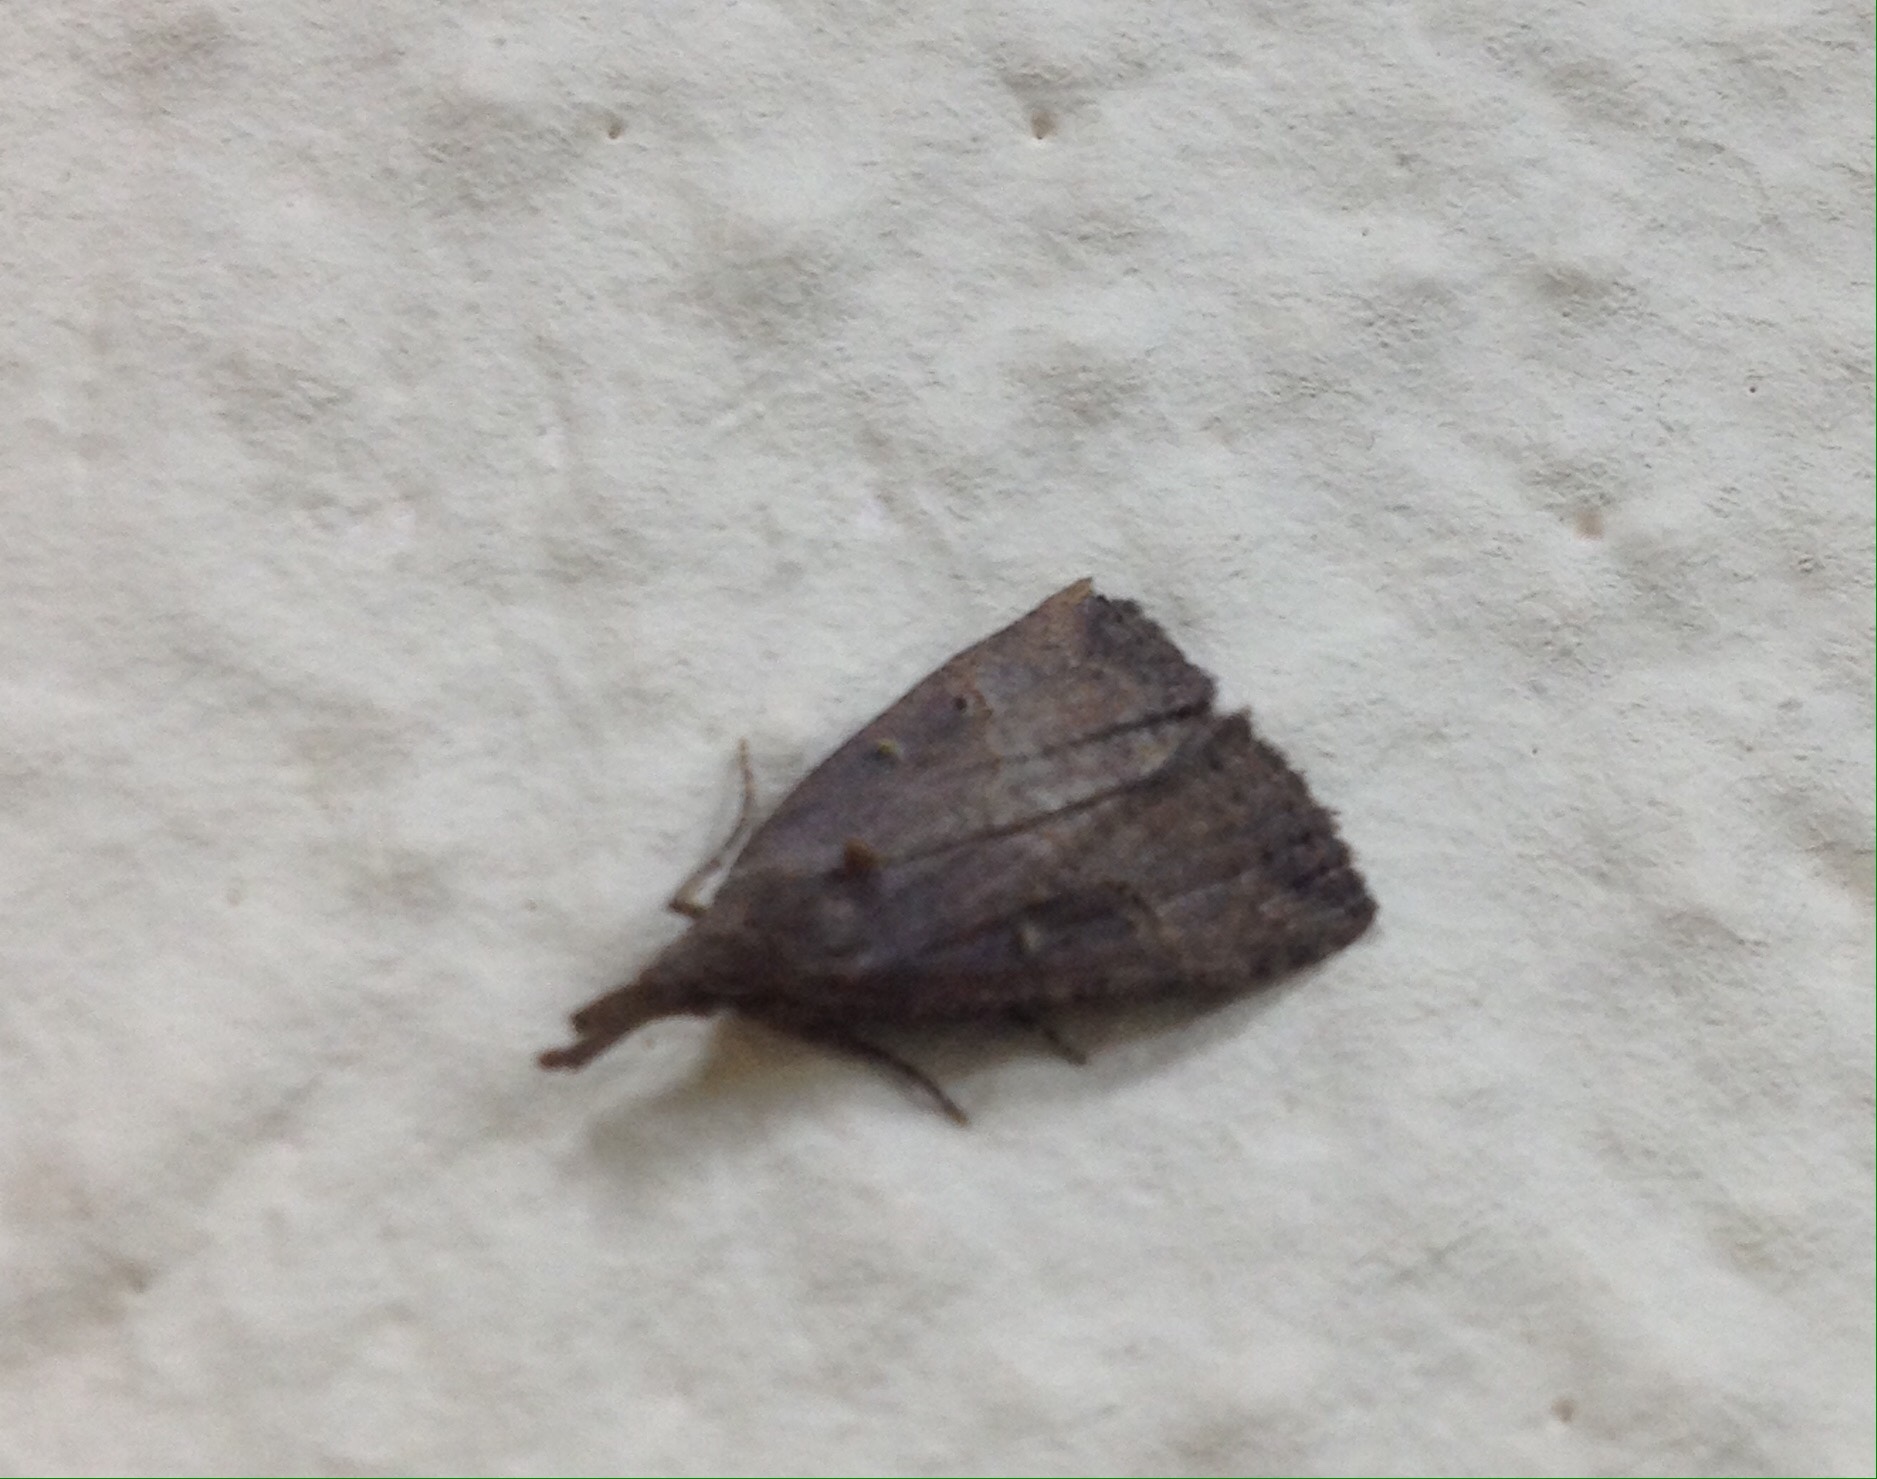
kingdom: Animalia
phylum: Arthropoda
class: Insecta
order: Lepidoptera
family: Erebidae
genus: Hypena
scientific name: Hypena rostralis
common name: Buttoned snout
